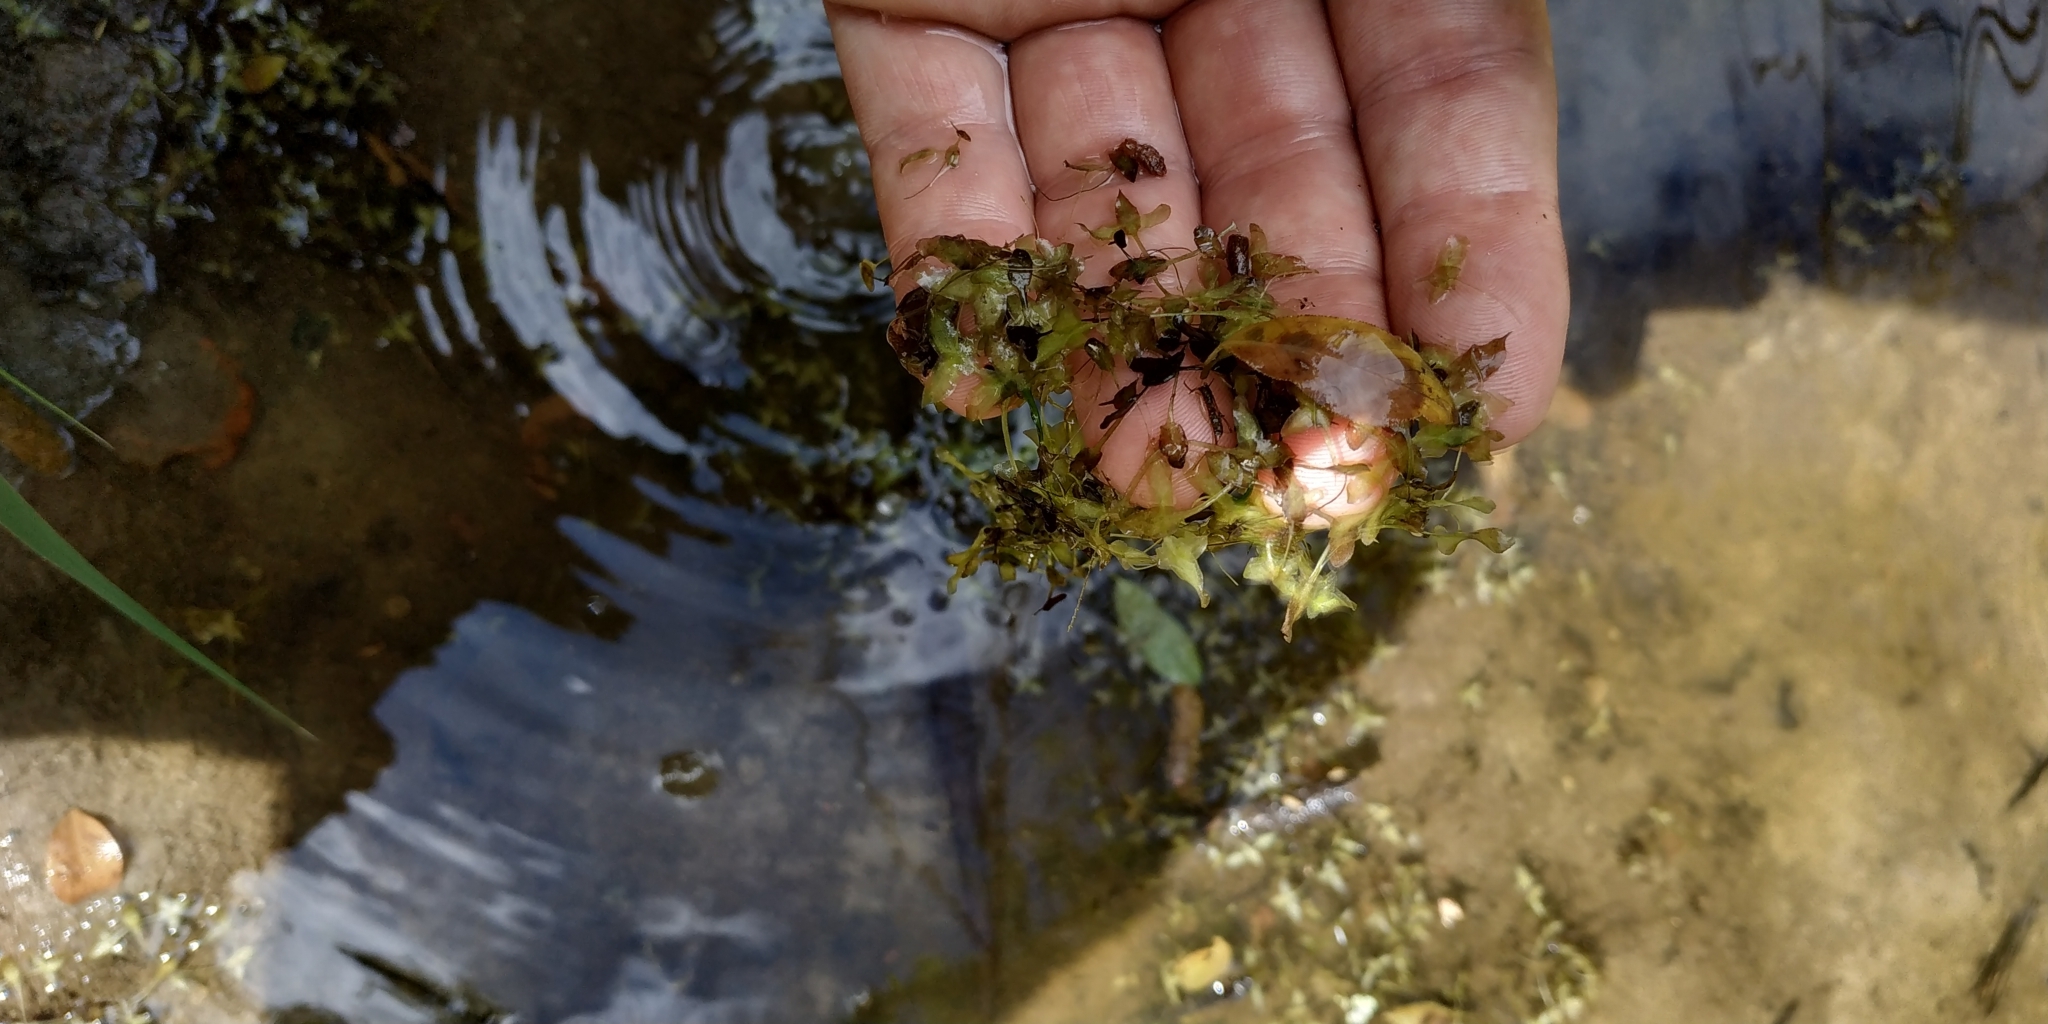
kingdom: Plantae
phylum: Tracheophyta
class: Liliopsida
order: Alismatales
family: Araceae
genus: Lemna
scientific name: Lemna trisulca
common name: Ivy-leaved duckweed
